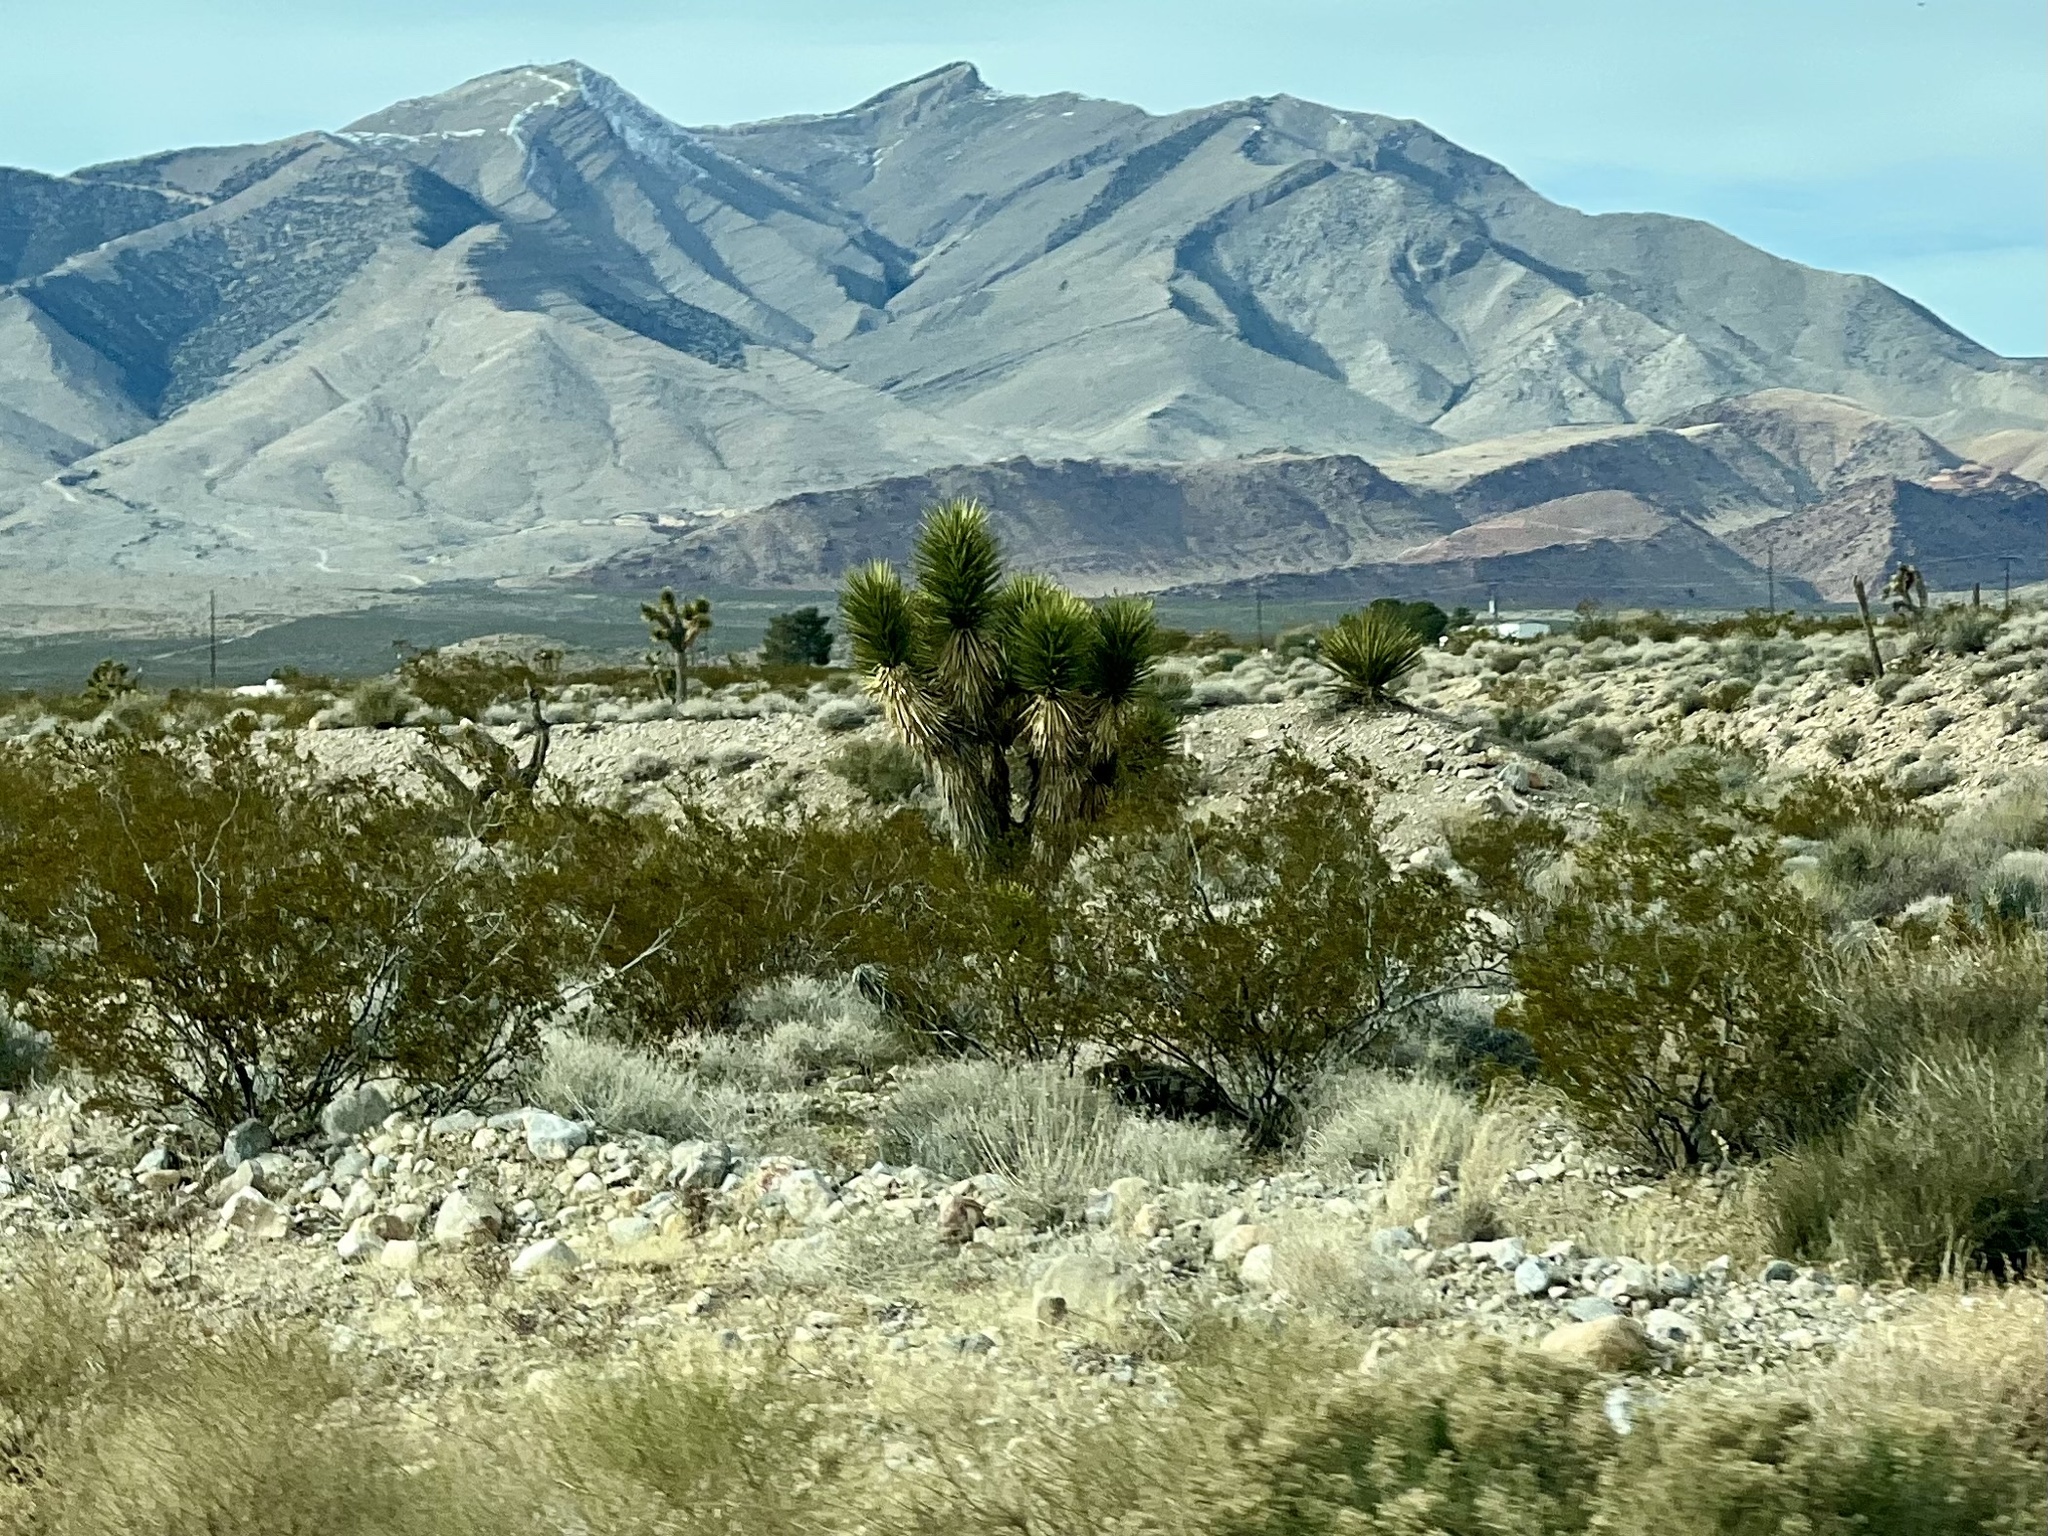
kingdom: Plantae
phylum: Tracheophyta
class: Liliopsida
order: Asparagales
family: Asparagaceae
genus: Yucca
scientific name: Yucca brevifolia
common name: Joshua tree
